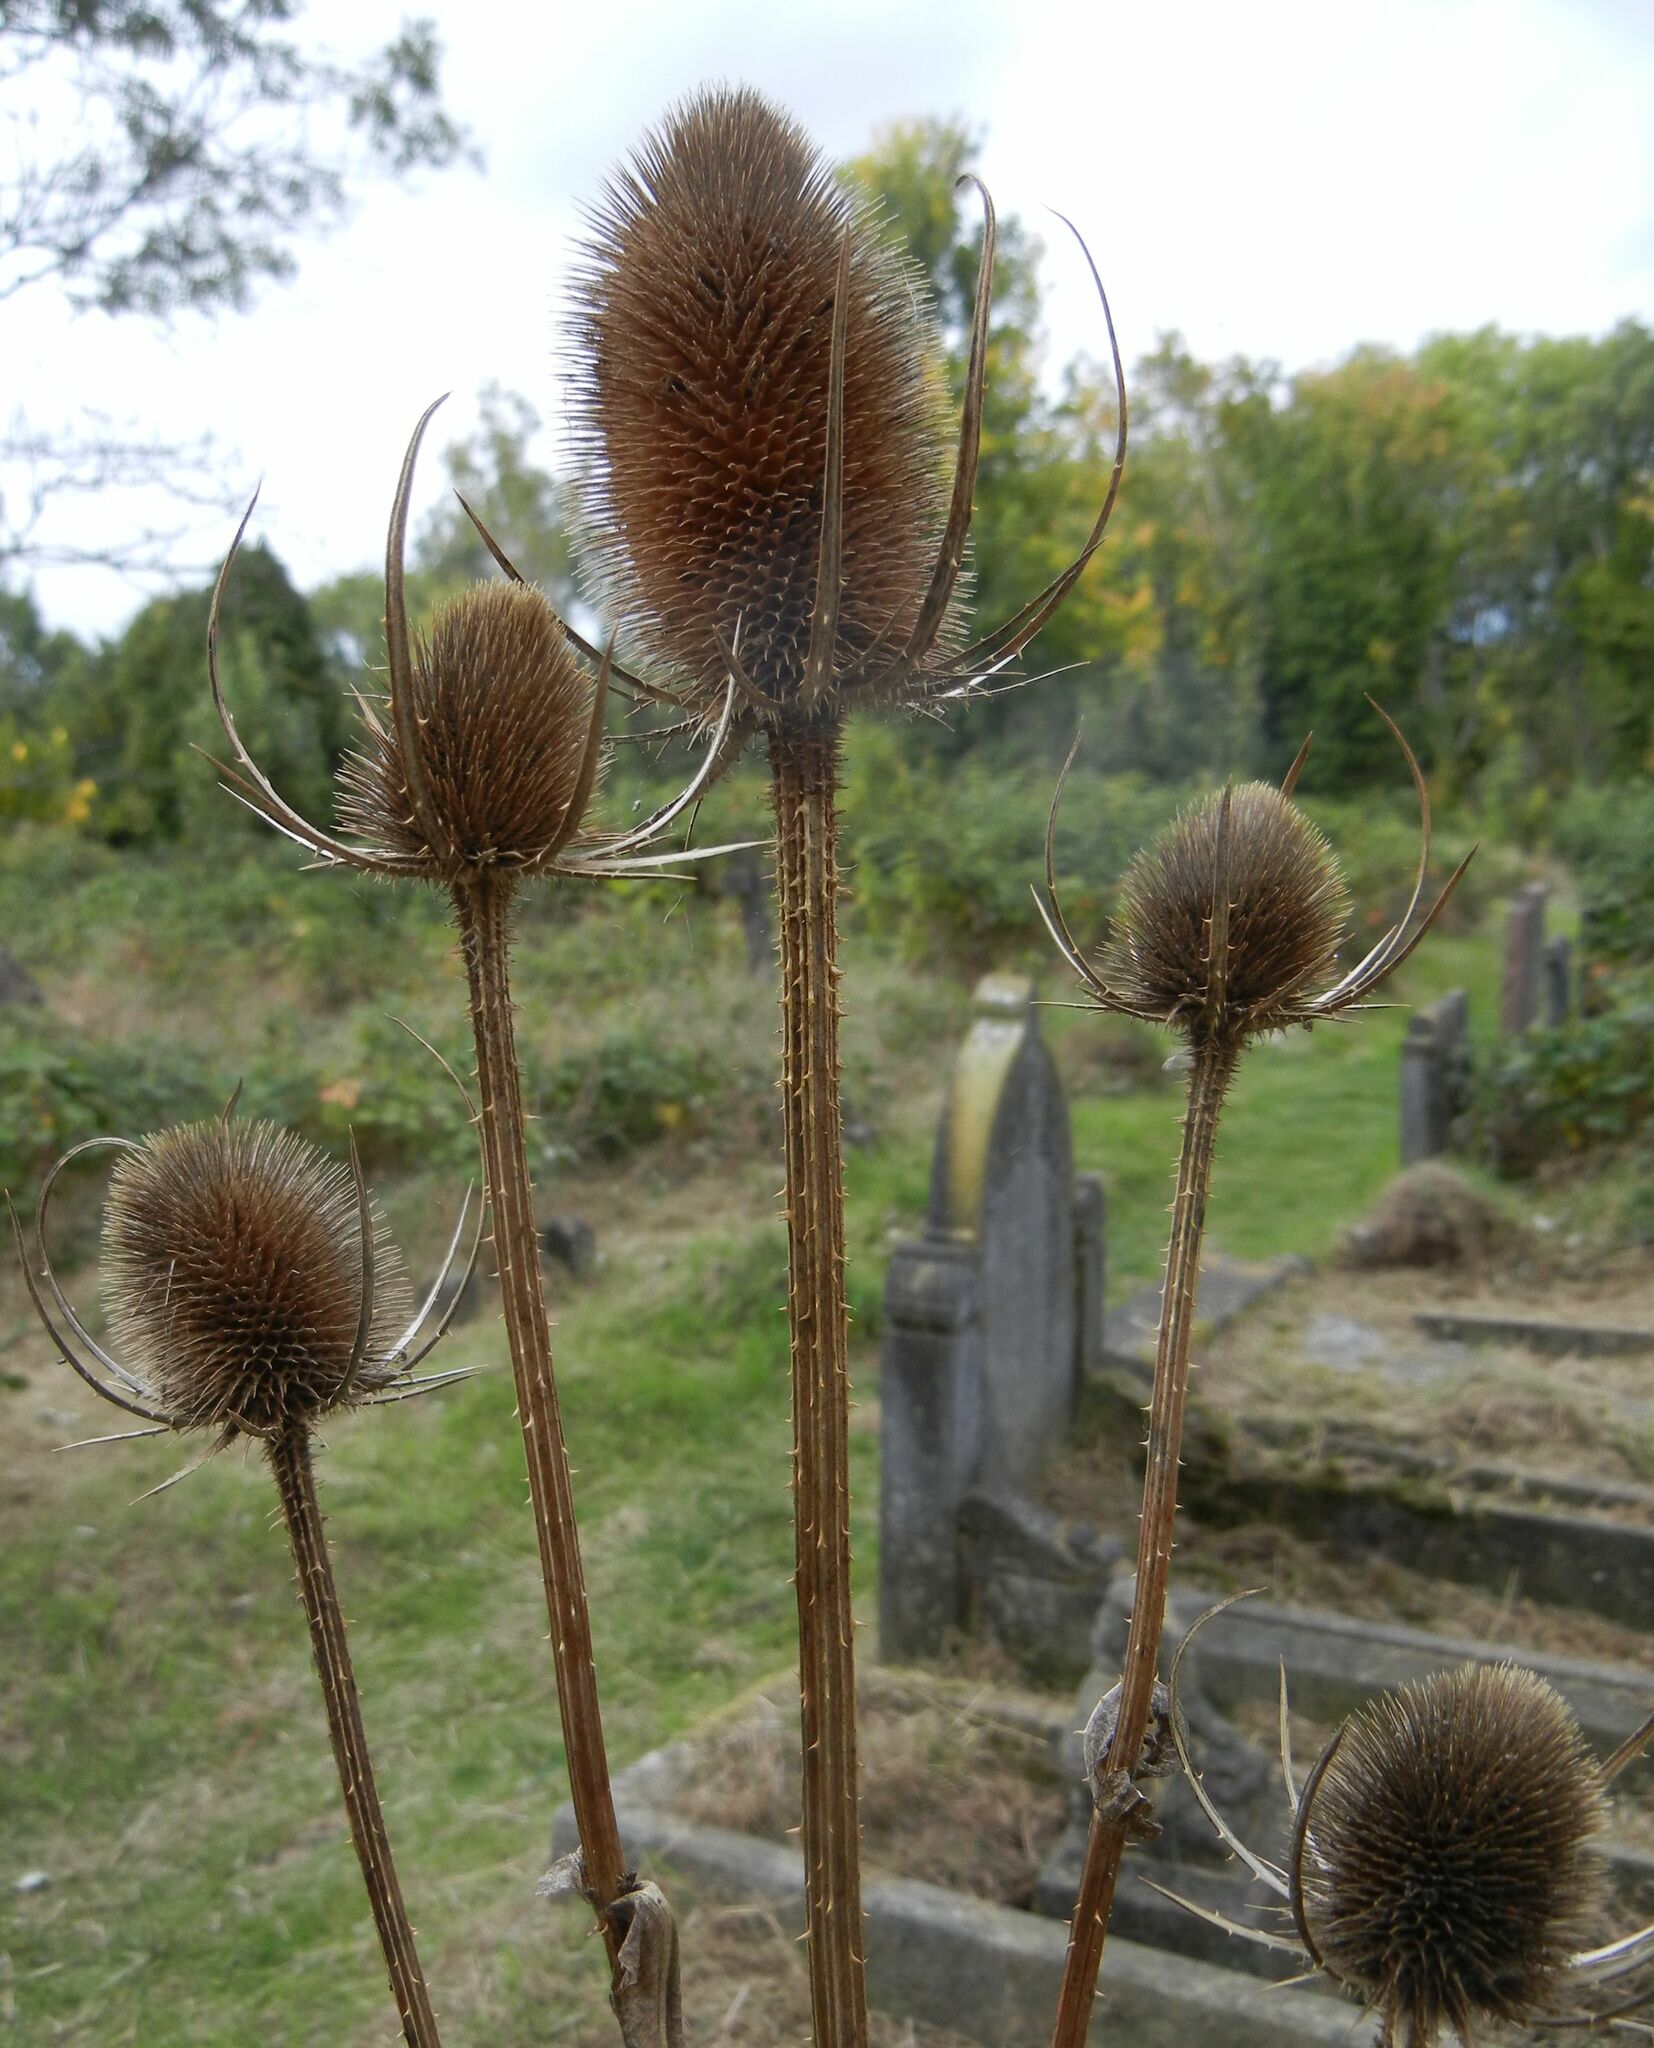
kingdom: Plantae
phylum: Tracheophyta
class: Magnoliopsida
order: Dipsacales
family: Caprifoliaceae
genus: Dipsacus
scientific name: Dipsacus fullonum
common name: Teasel
